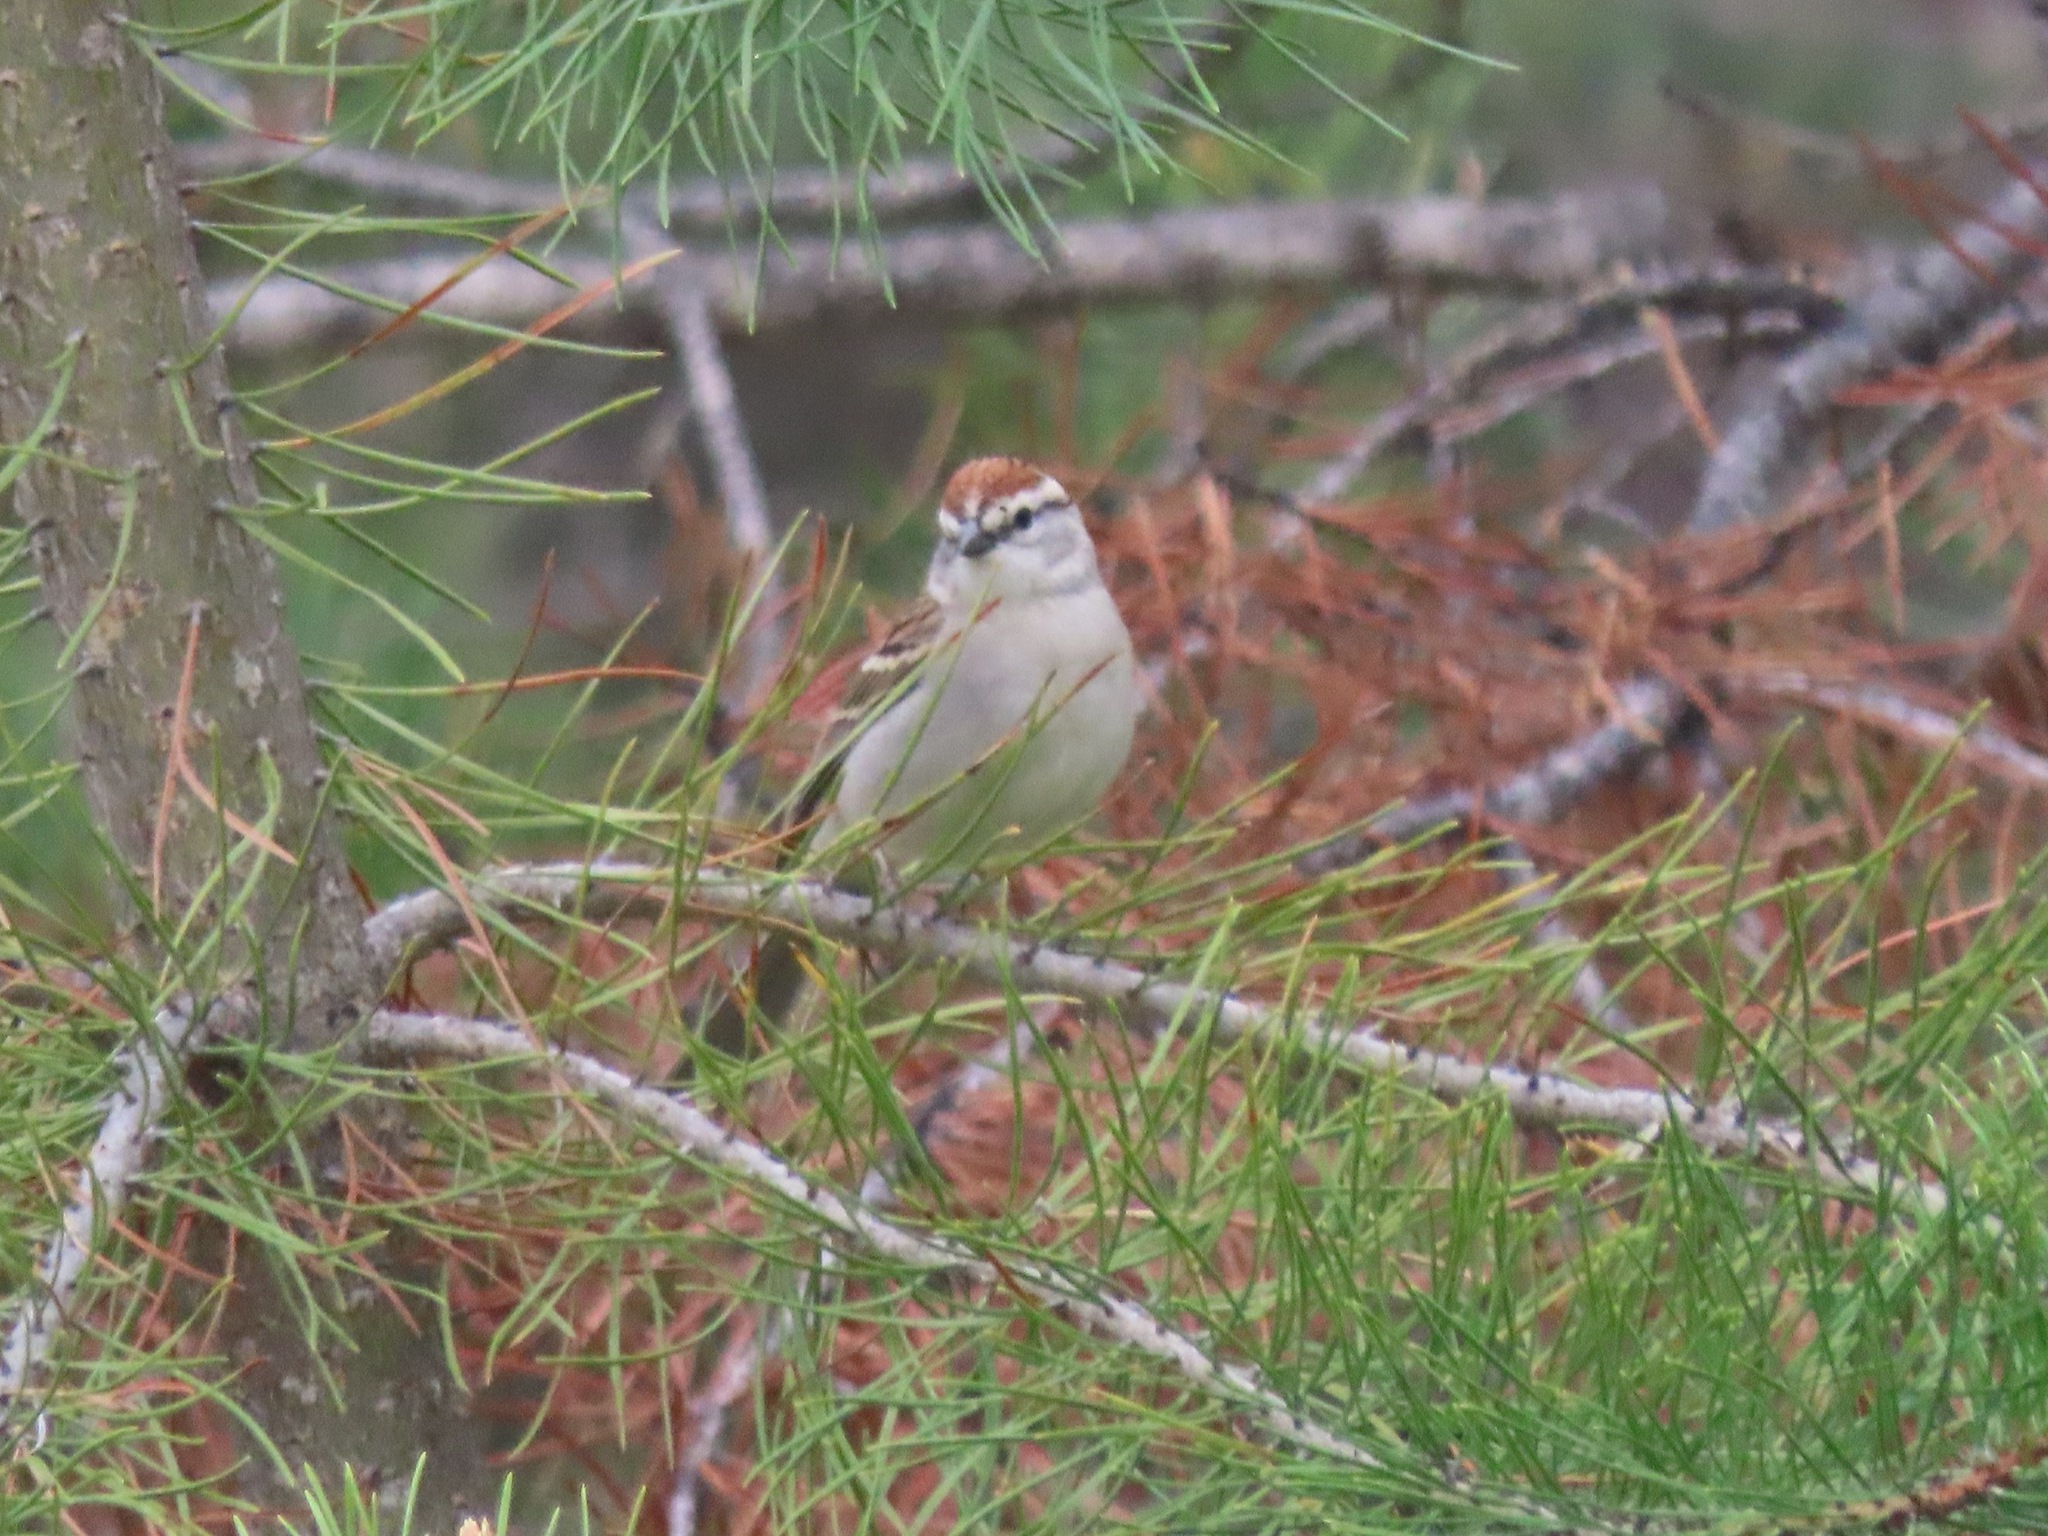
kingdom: Animalia
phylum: Chordata
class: Aves
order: Passeriformes
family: Passerellidae
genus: Spizella
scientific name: Spizella passerina
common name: Chipping sparrow
